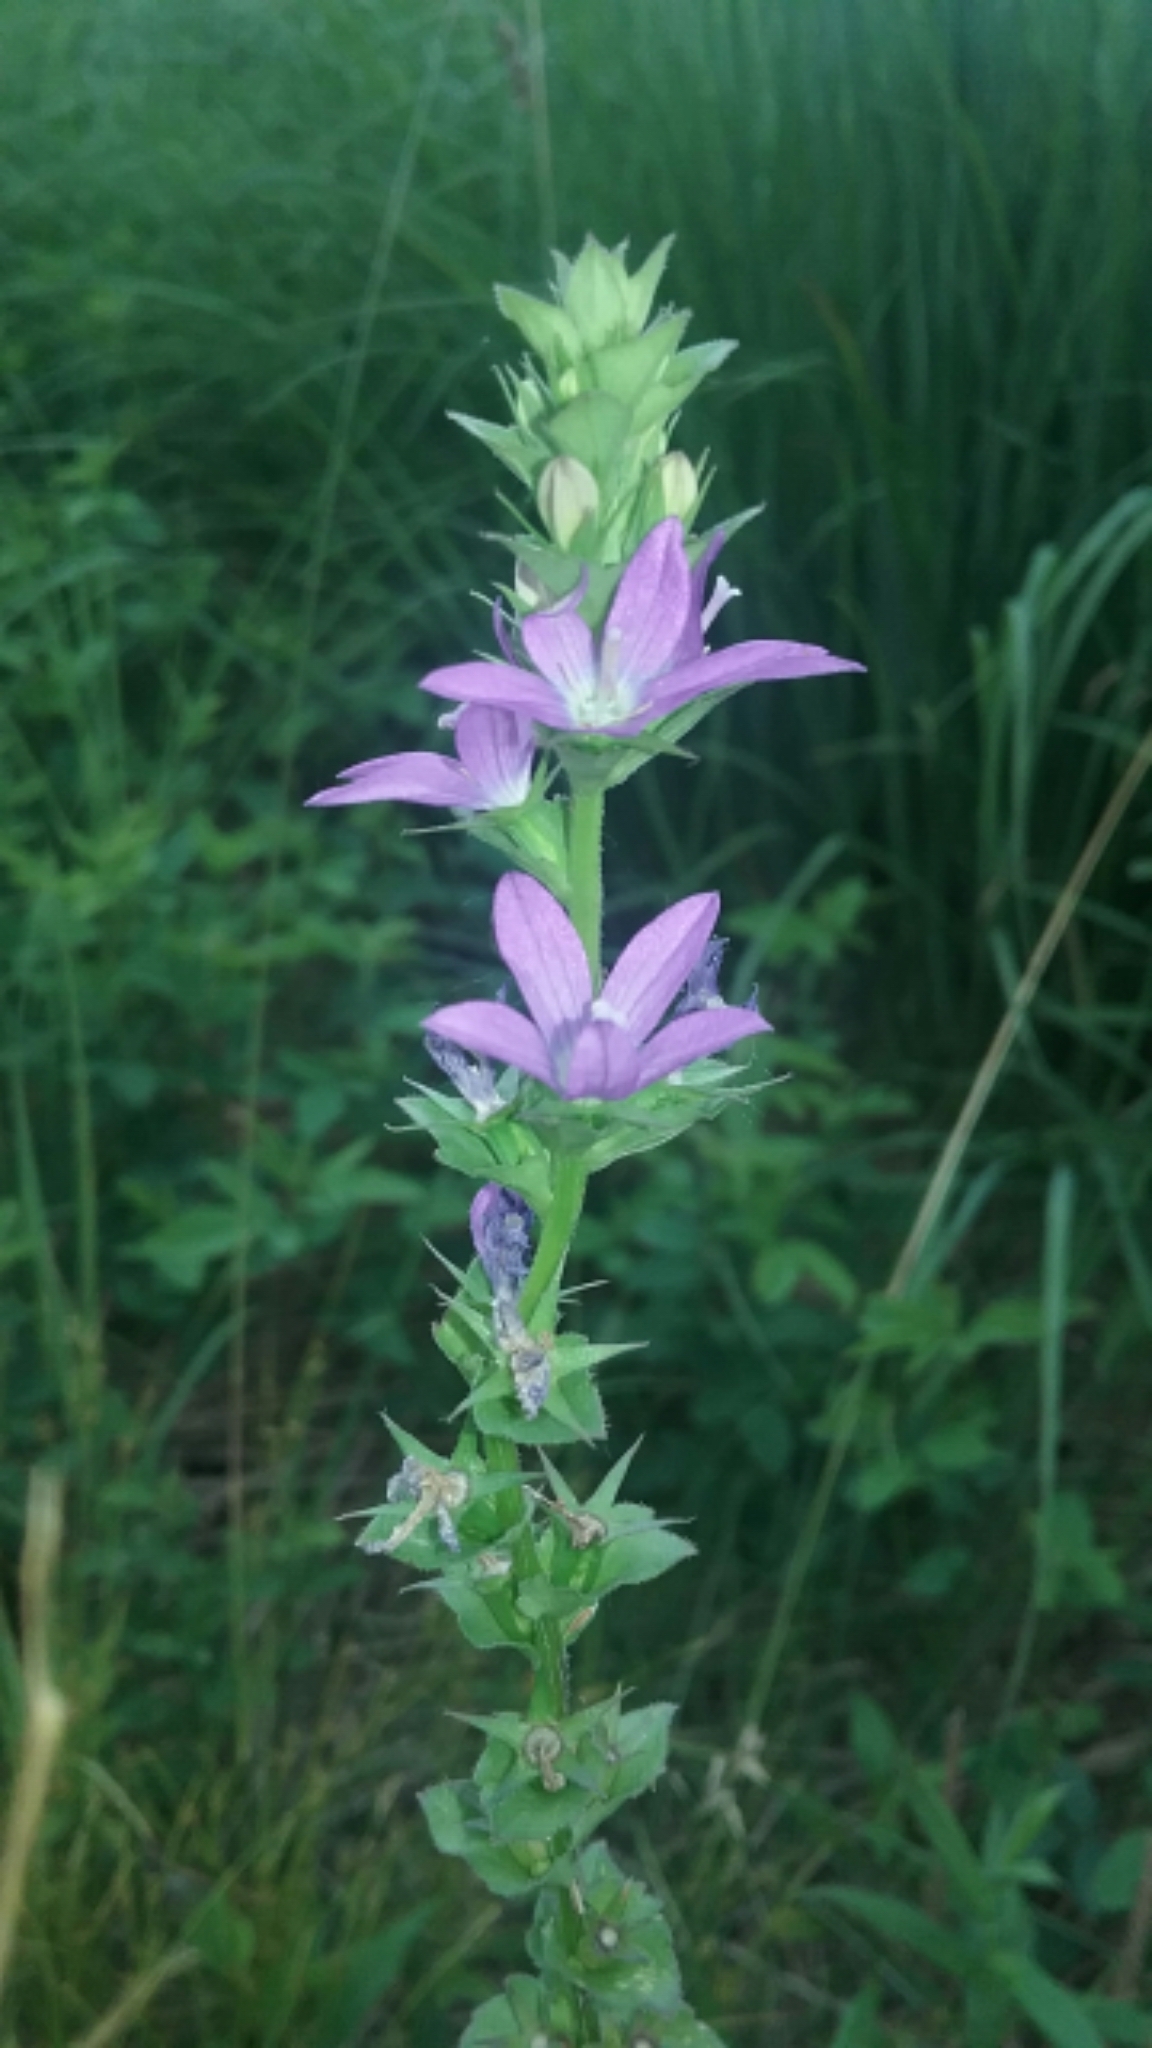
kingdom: Plantae
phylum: Tracheophyta
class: Magnoliopsida
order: Asterales
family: Campanulaceae
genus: Triodanis
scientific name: Triodanis perfoliata
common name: Clasping venus' looking-glass
